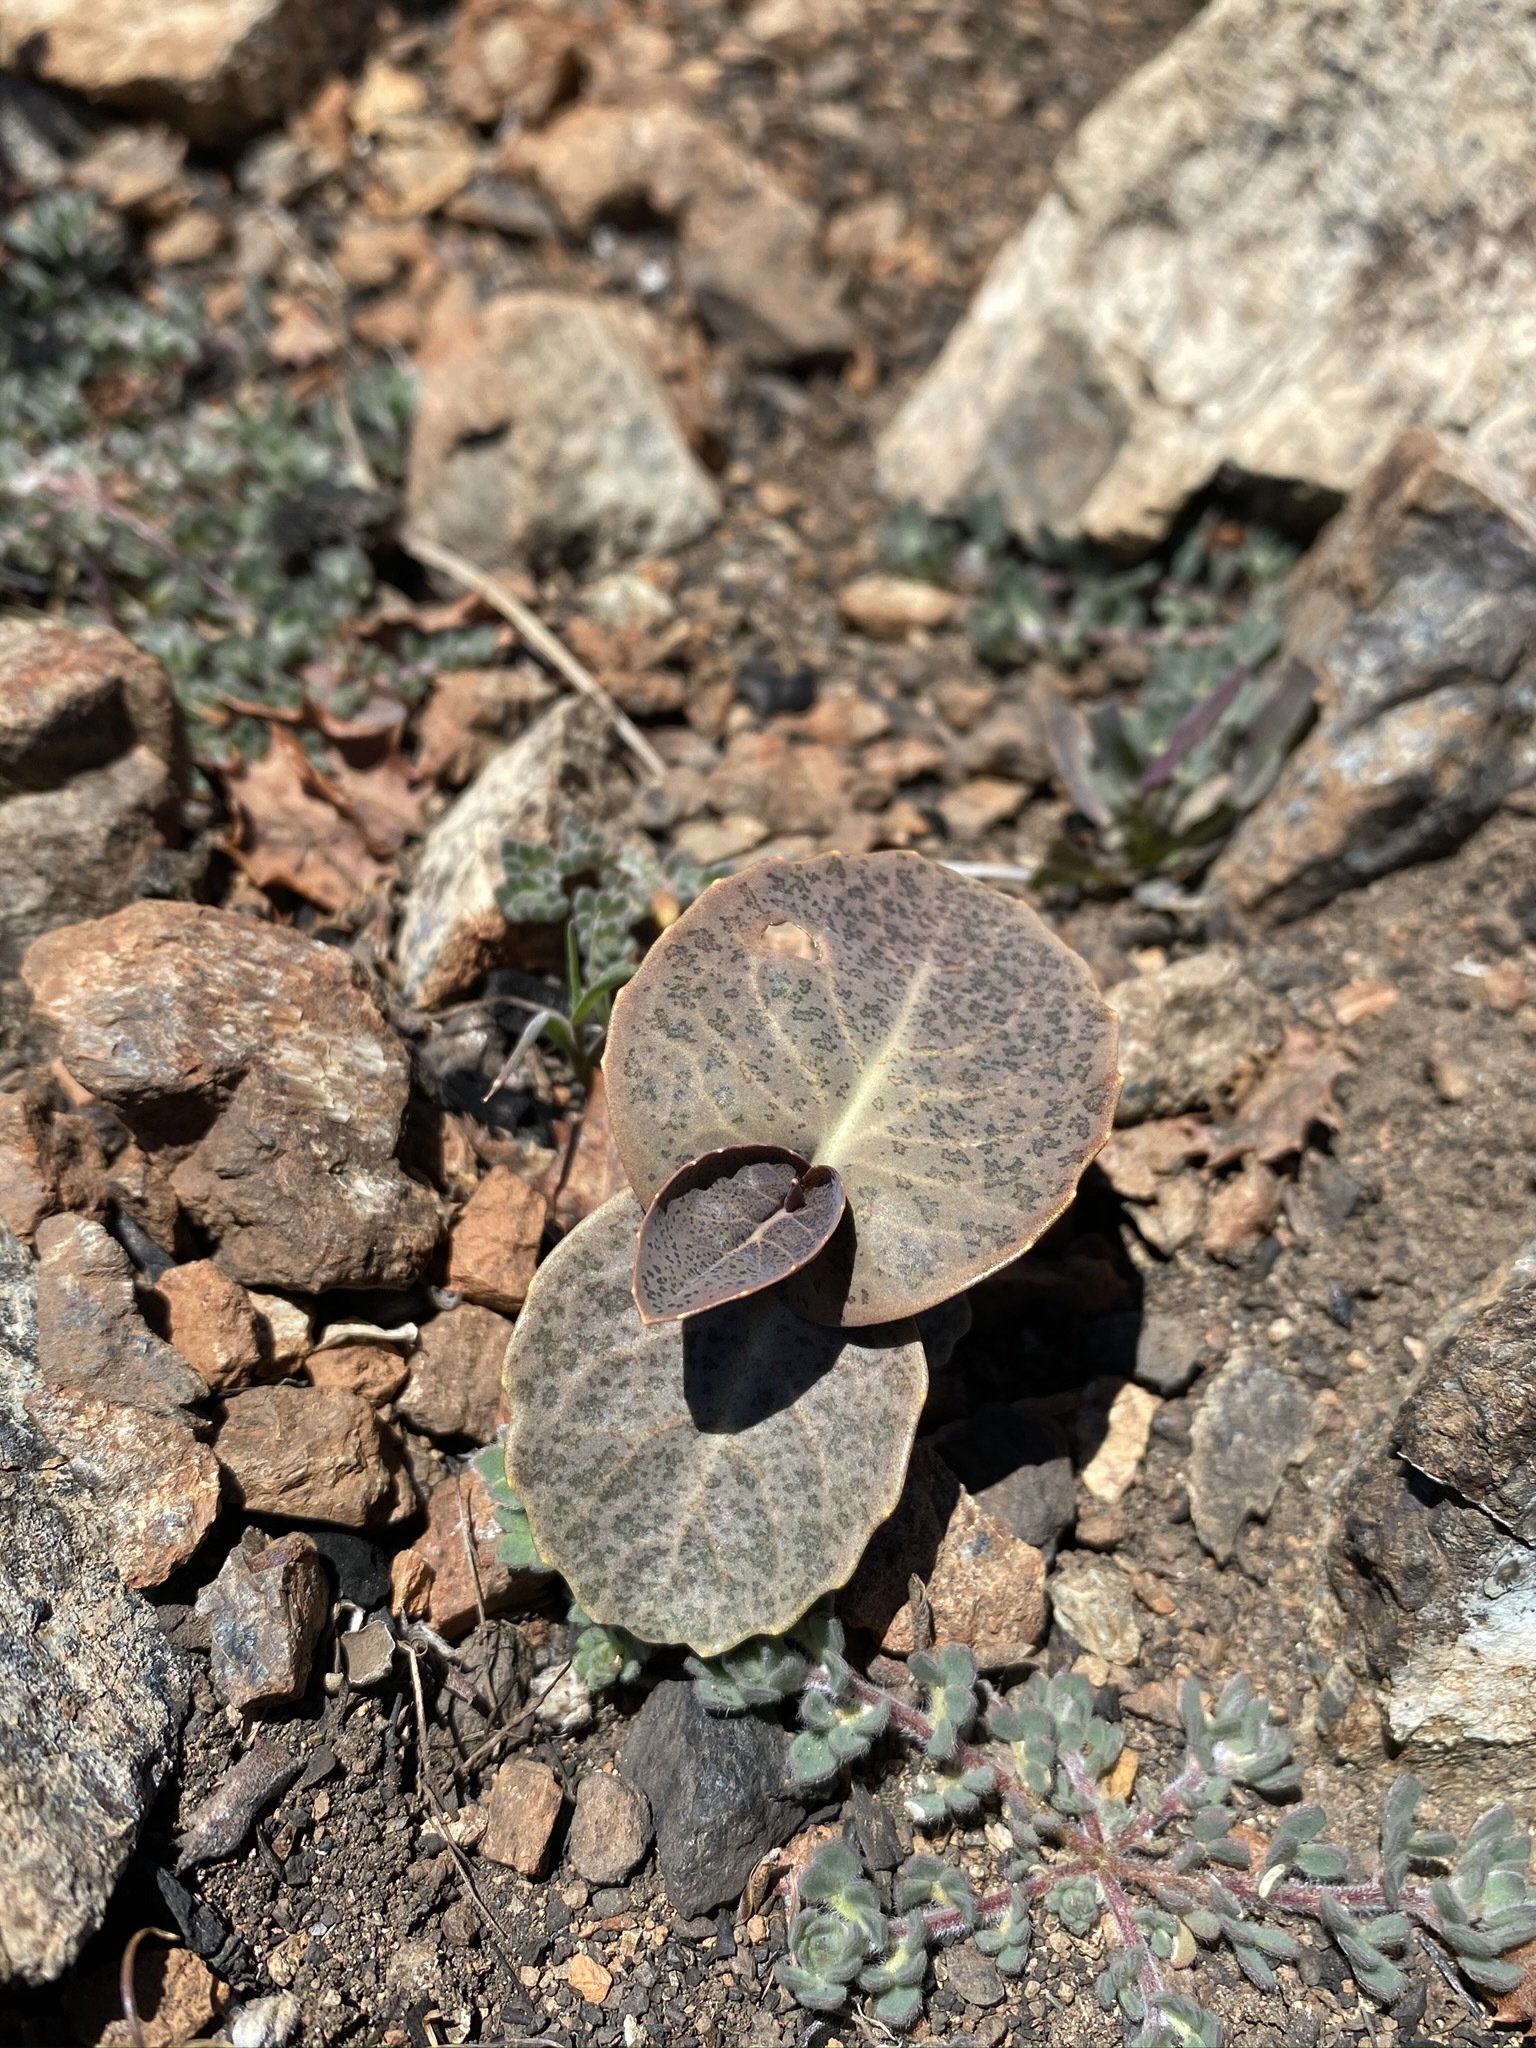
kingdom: Plantae
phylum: Tracheophyta
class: Magnoliopsida
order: Brassicales
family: Brassicaceae
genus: Streptanthus
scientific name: Streptanthus breweri
